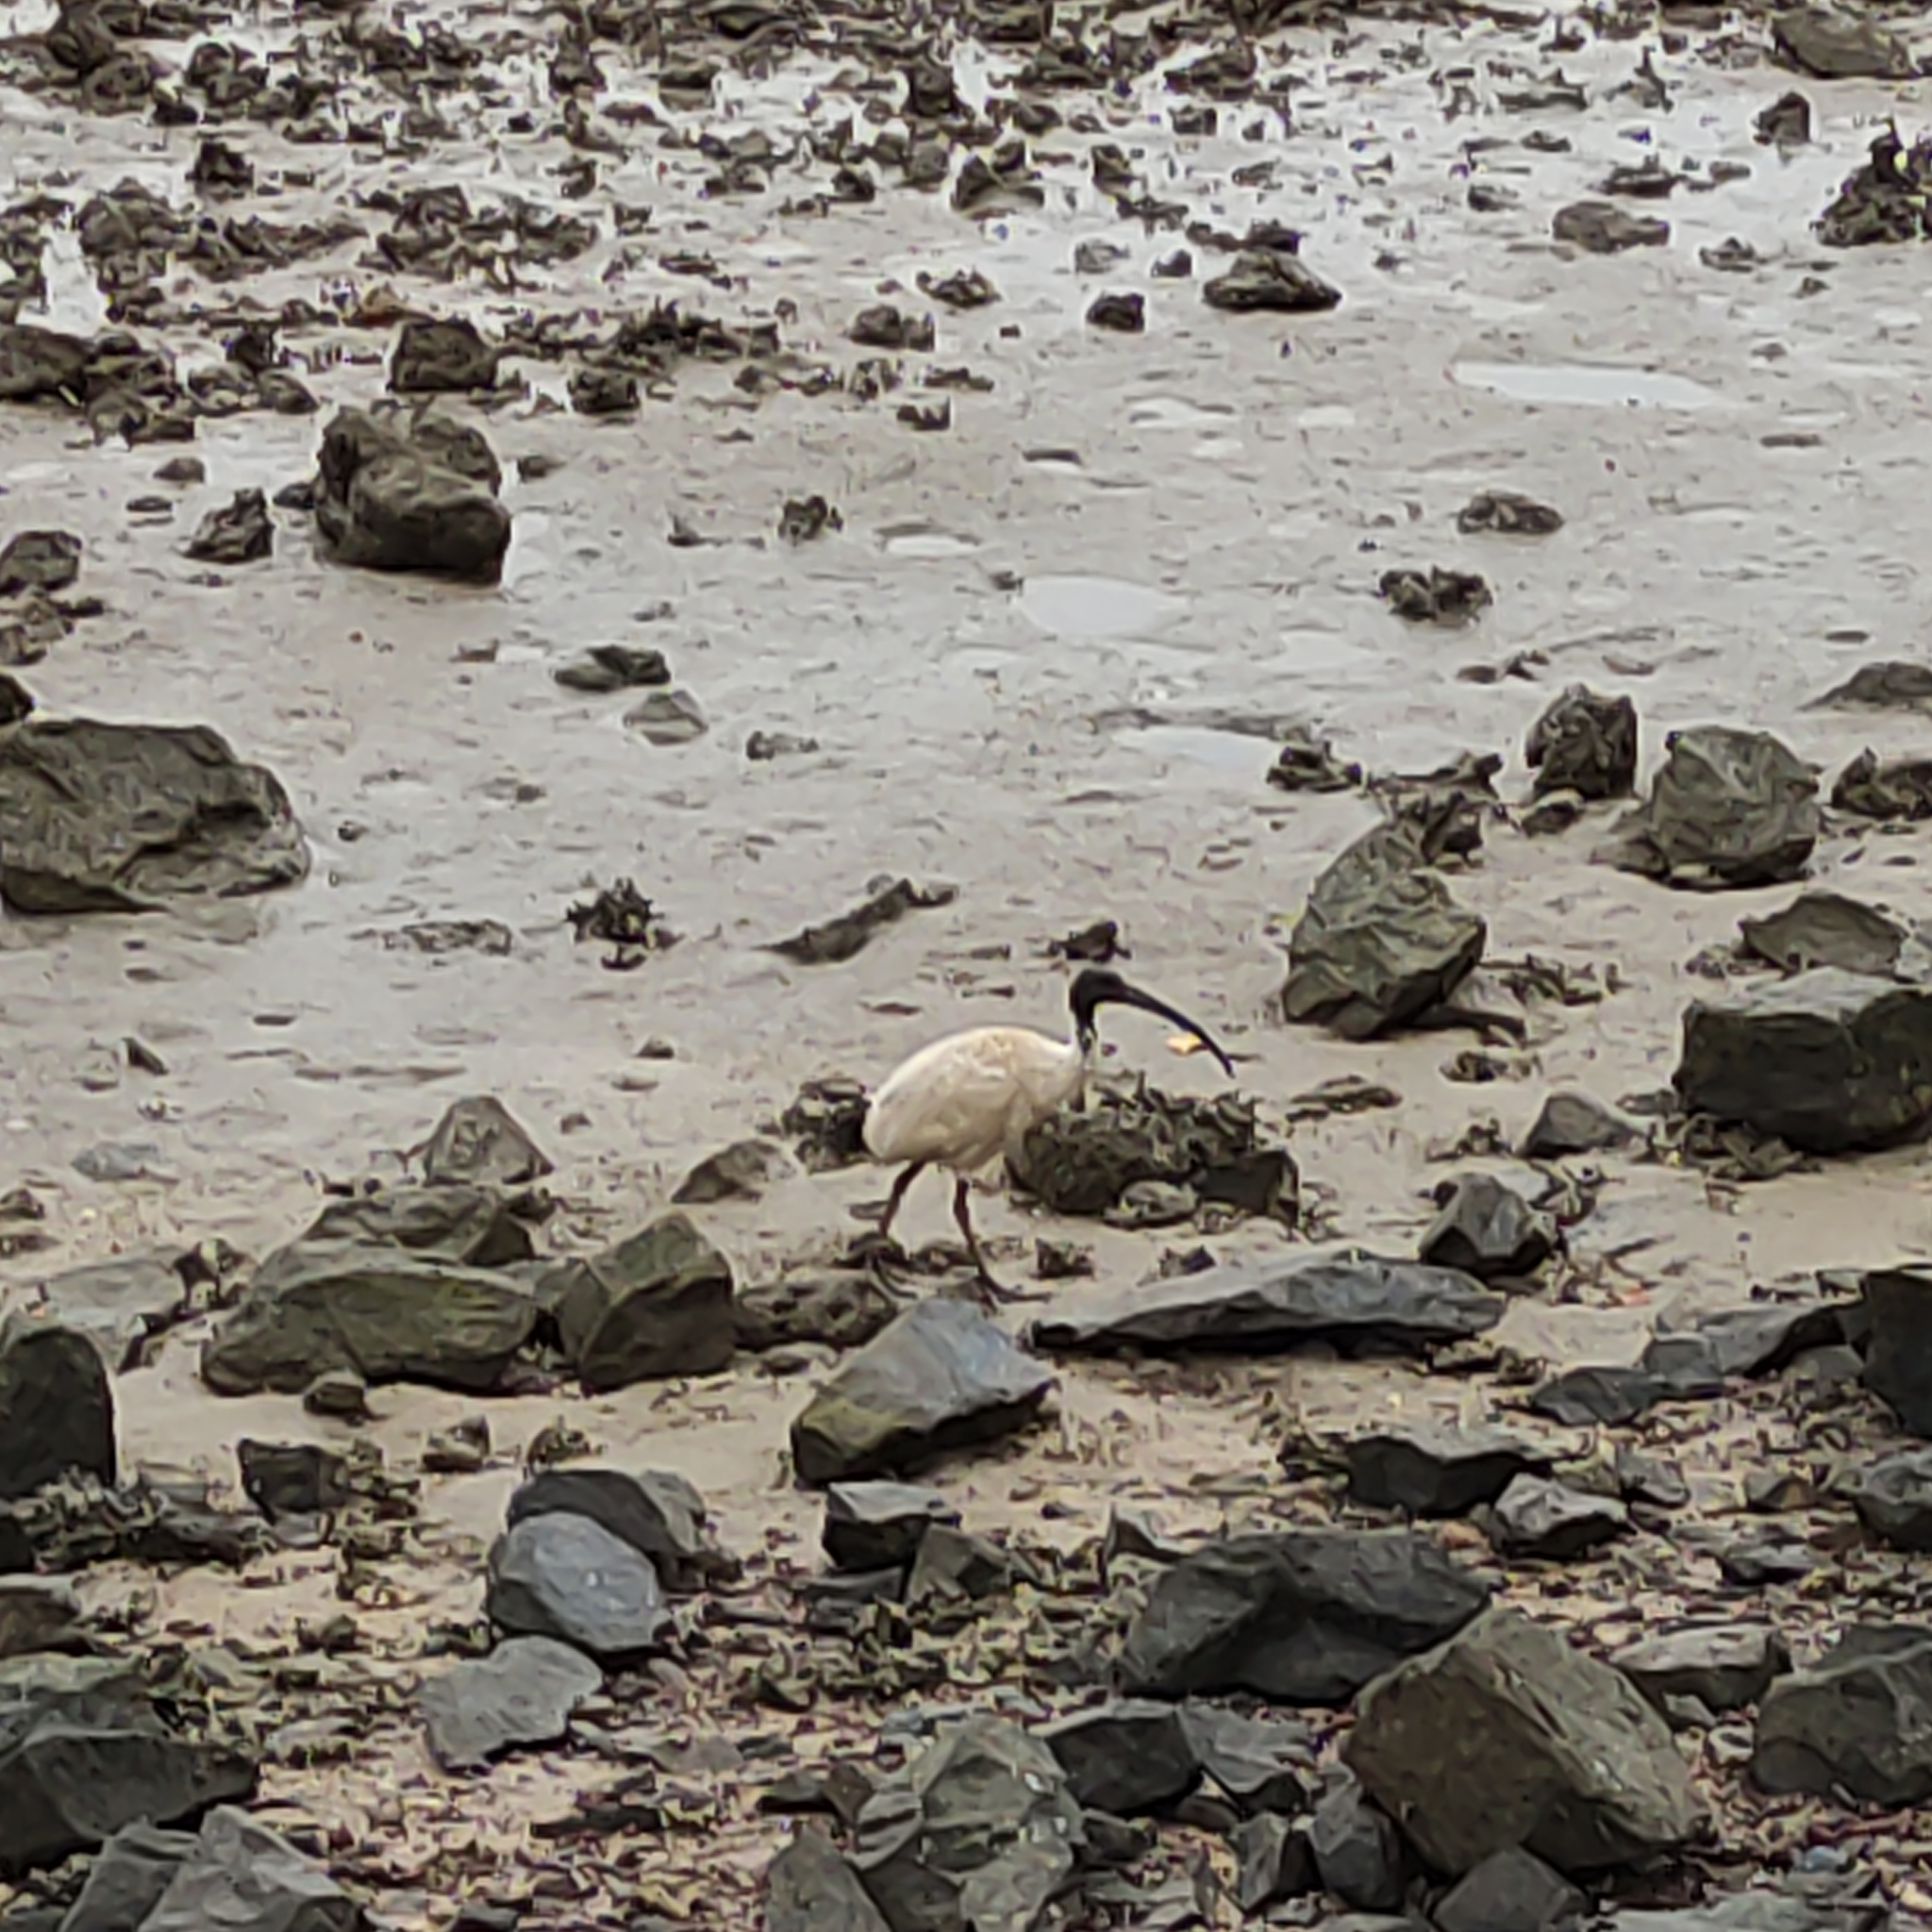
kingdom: Animalia
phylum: Chordata
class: Aves
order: Pelecaniformes
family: Threskiornithidae
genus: Threskiornis
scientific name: Threskiornis molucca
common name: Australian white ibis
